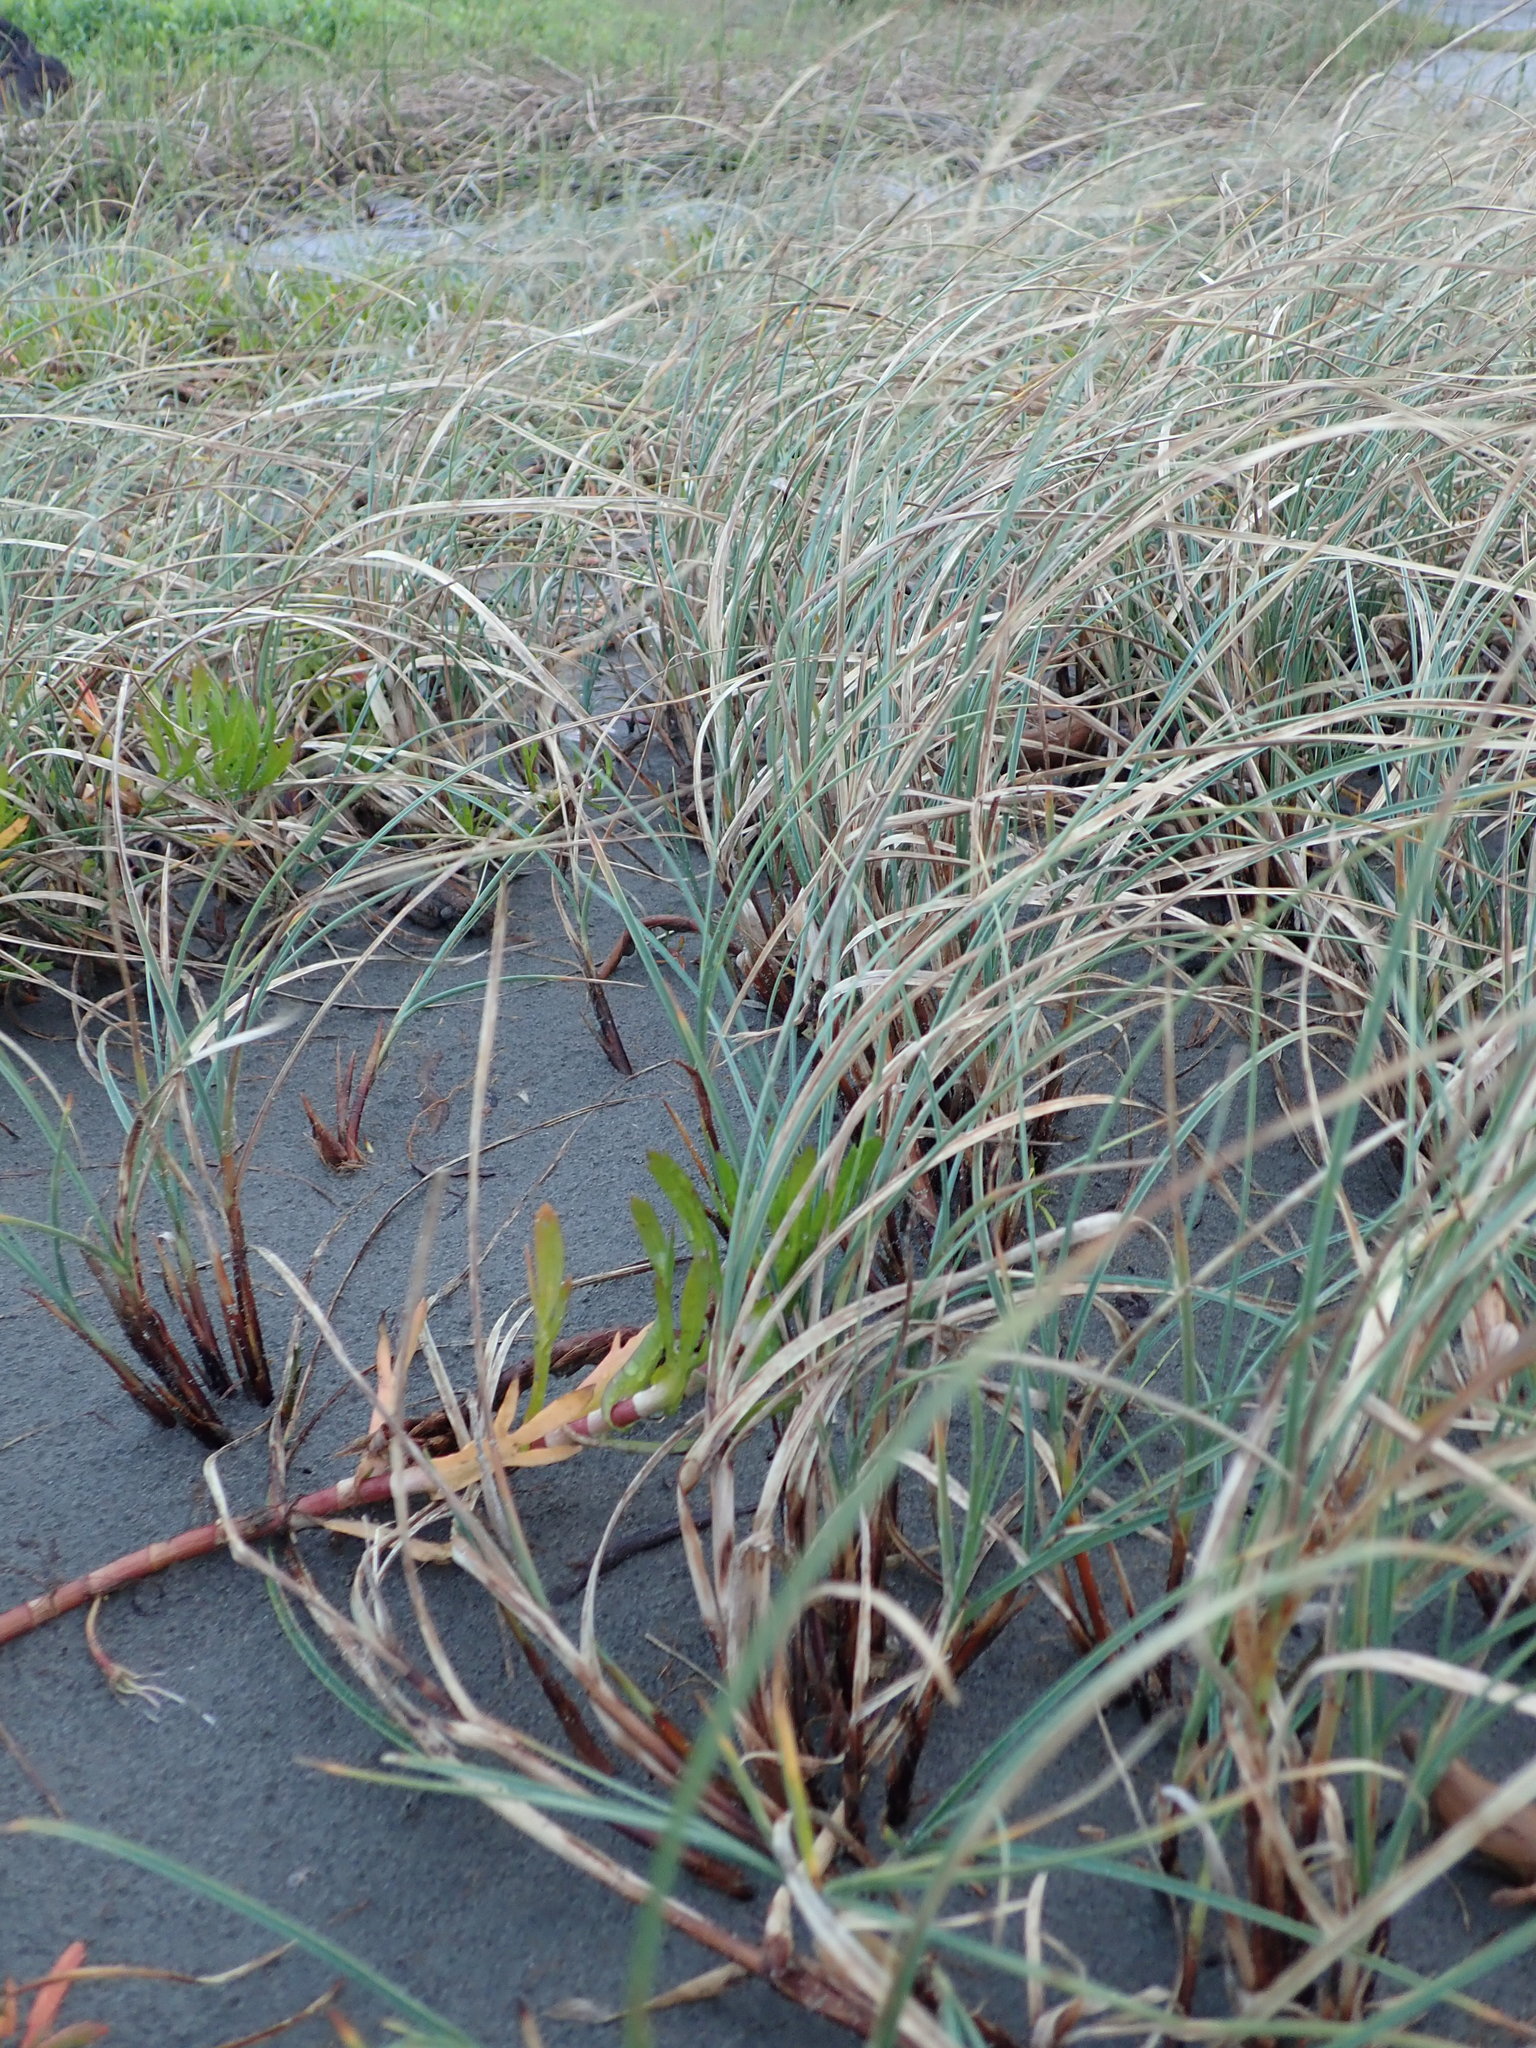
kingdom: Plantae
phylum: Tracheophyta
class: Liliopsida
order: Poales
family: Cyperaceae
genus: Carex
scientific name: Carex pumila
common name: Dwarf sedge
